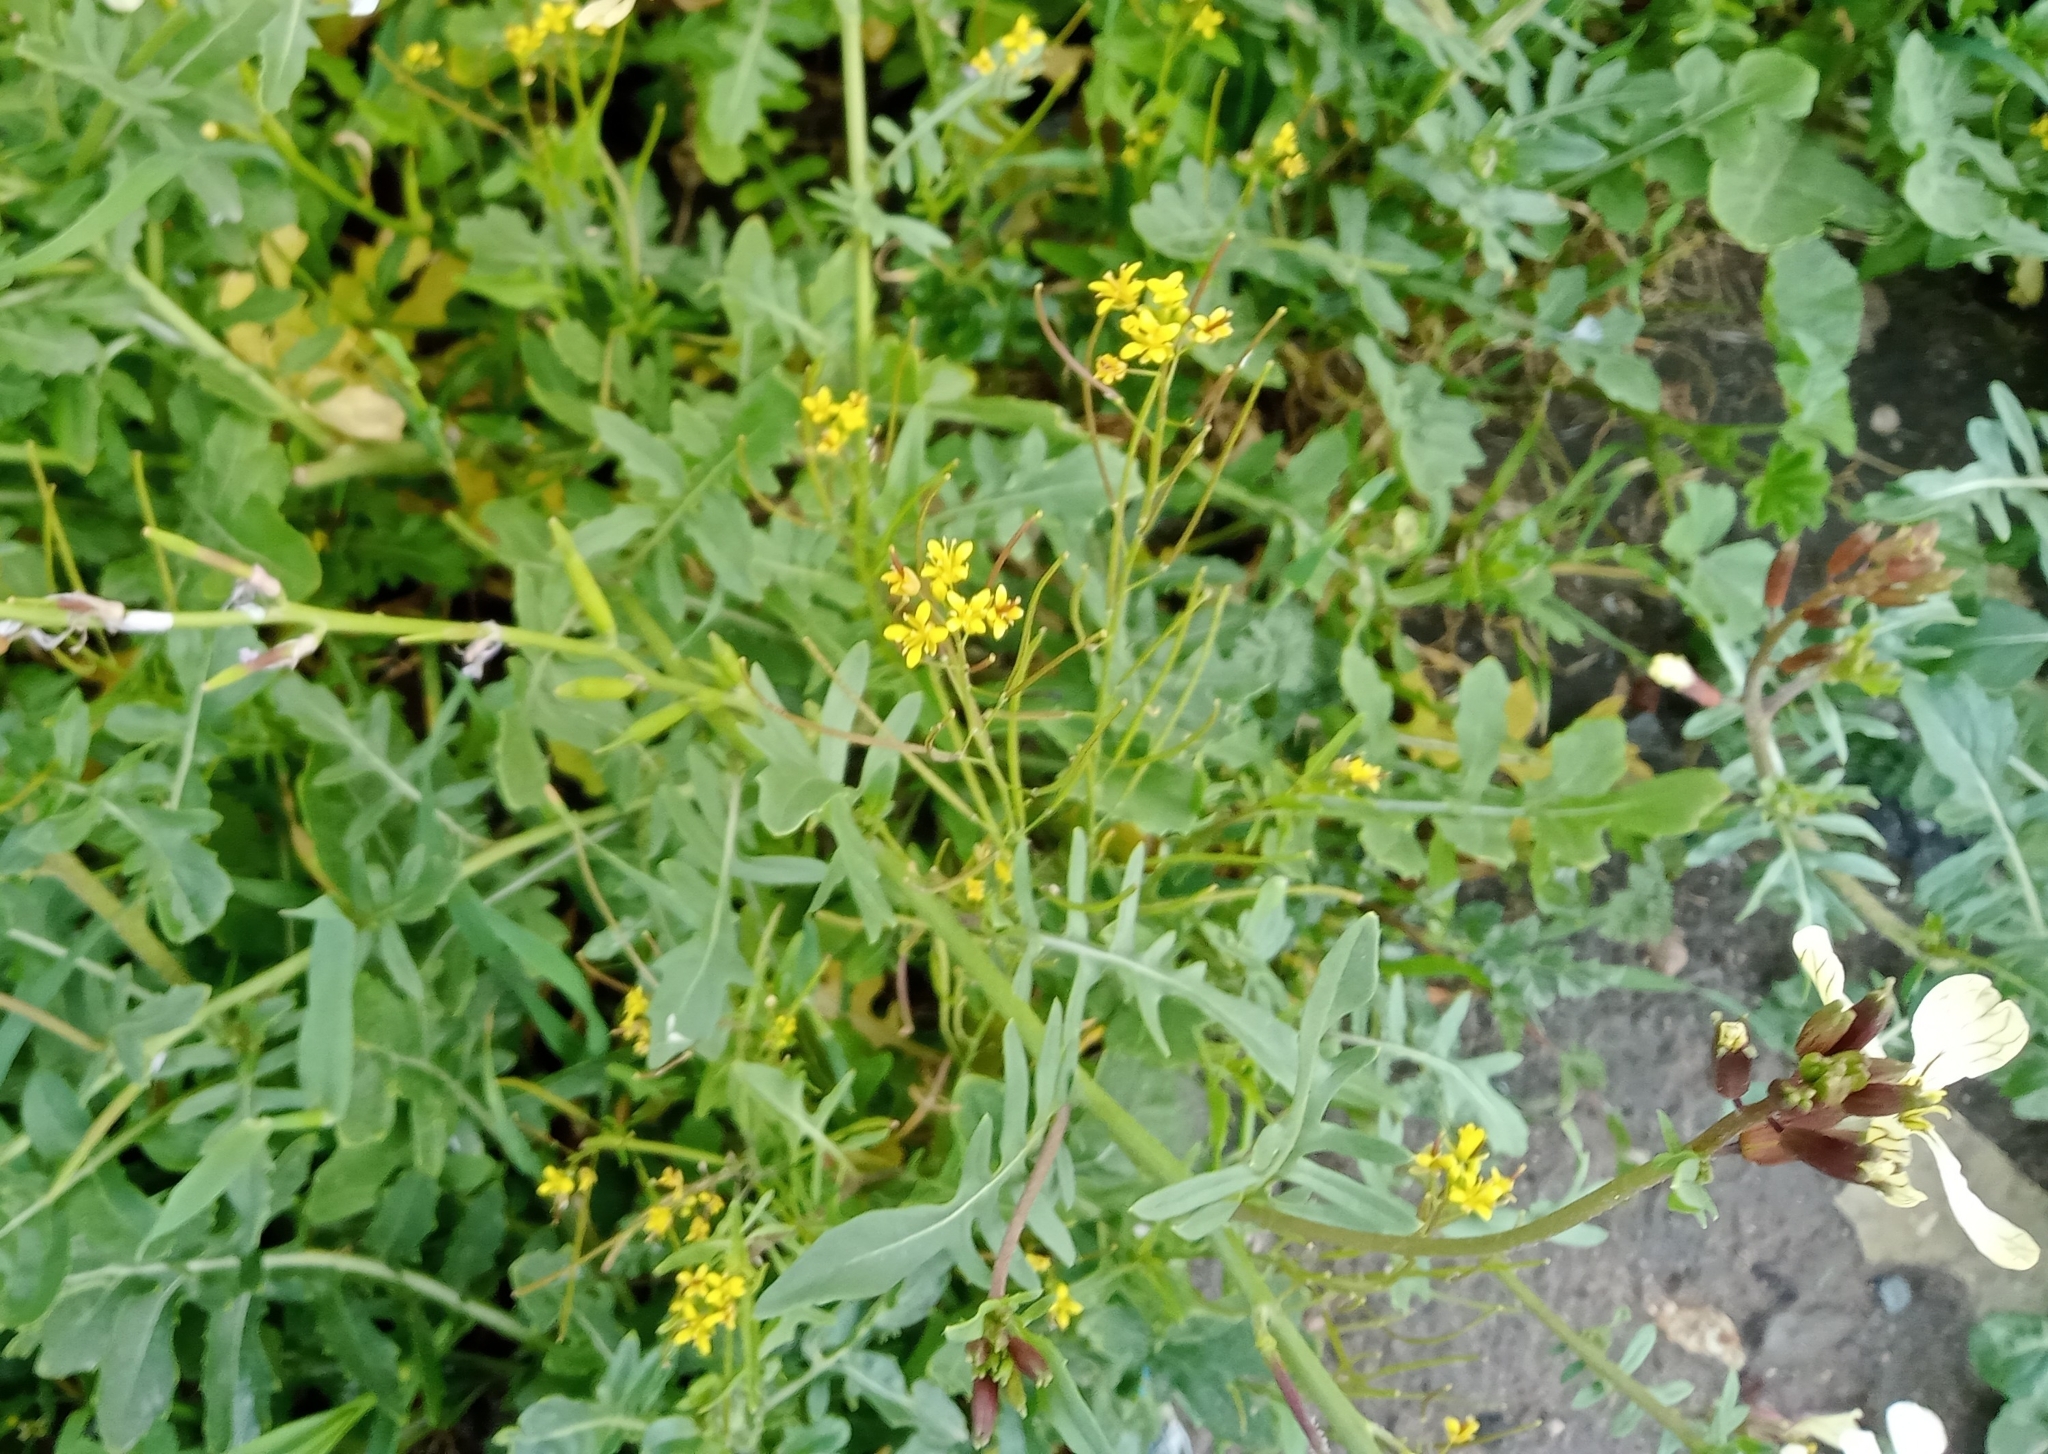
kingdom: Plantae
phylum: Tracheophyta
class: Magnoliopsida
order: Brassicales
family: Brassicaceae
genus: Sisymbrium
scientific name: Sisymbrium irio
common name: London rocket
